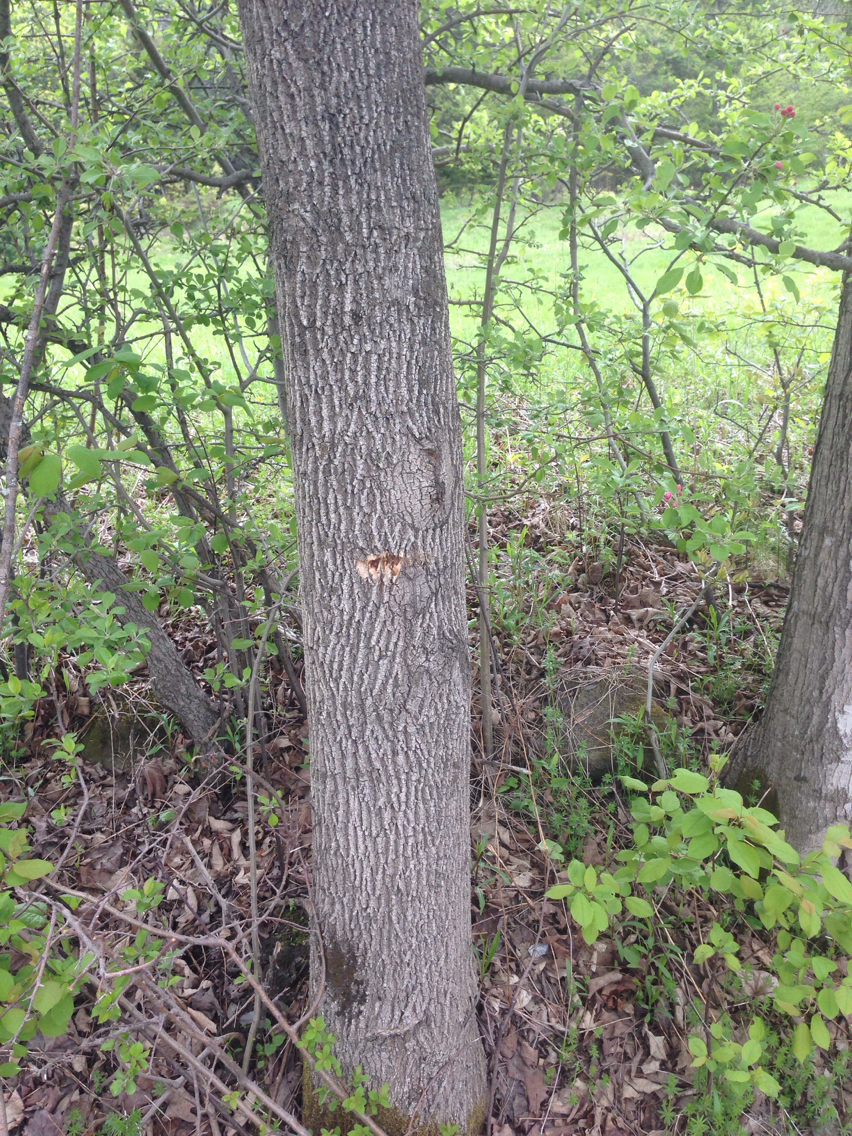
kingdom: Plantae
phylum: Tracheophyta
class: Magnoliopsida
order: Lamiales
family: Oleaceae
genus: Fraxinus
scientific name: Fraxinus americana
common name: White ash
